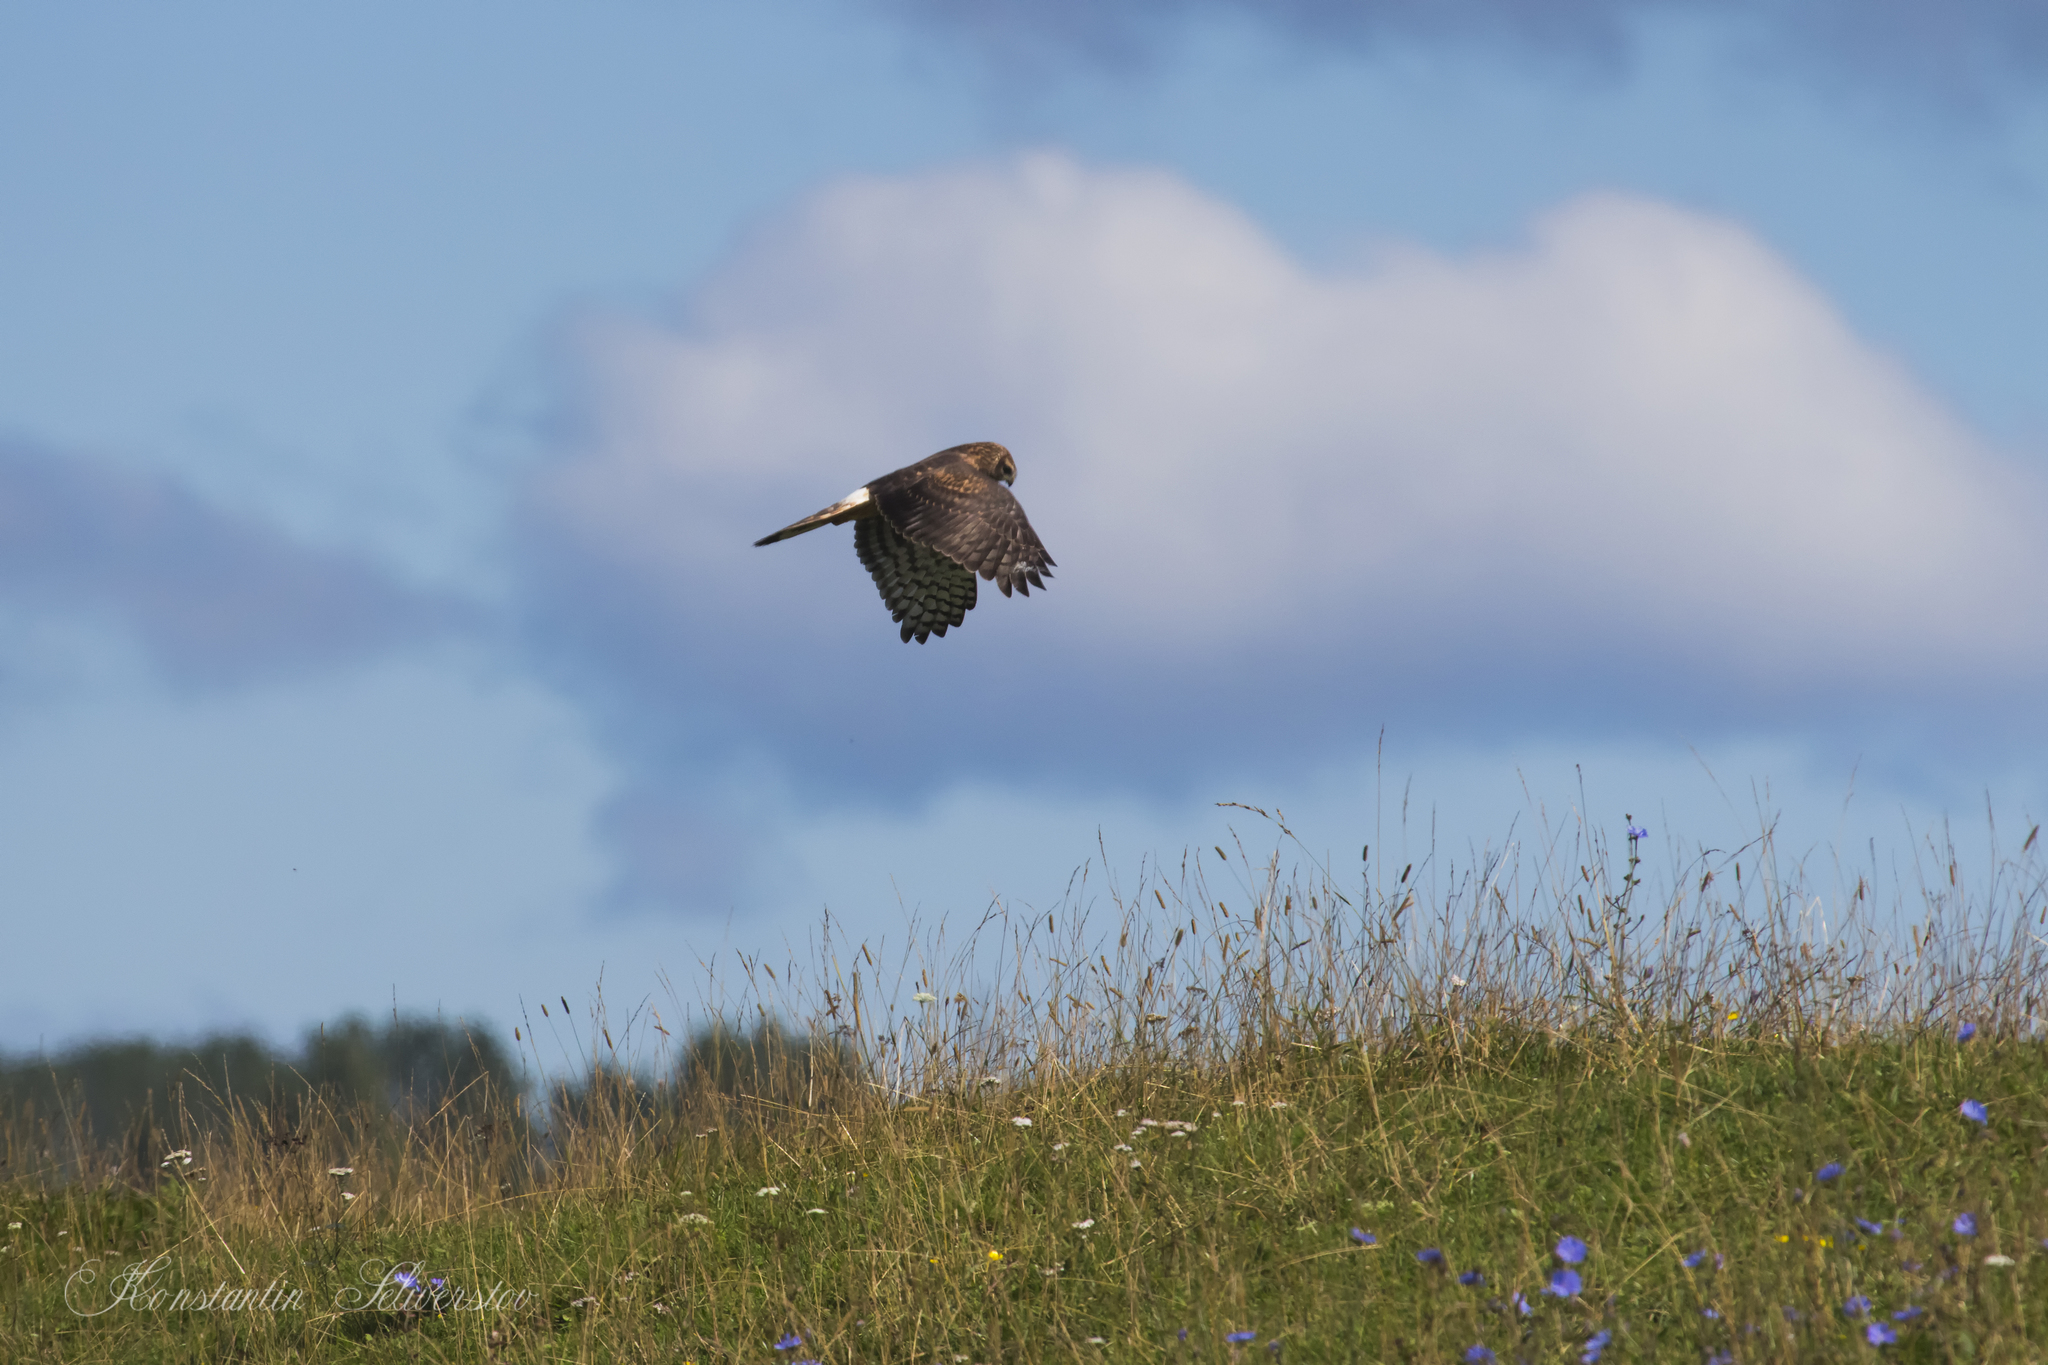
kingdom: Animalia
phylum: Chordata
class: Aves
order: Accipitriformes
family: Accipitridae
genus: Circus
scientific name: Circus cyaneus
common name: Hen harrier
